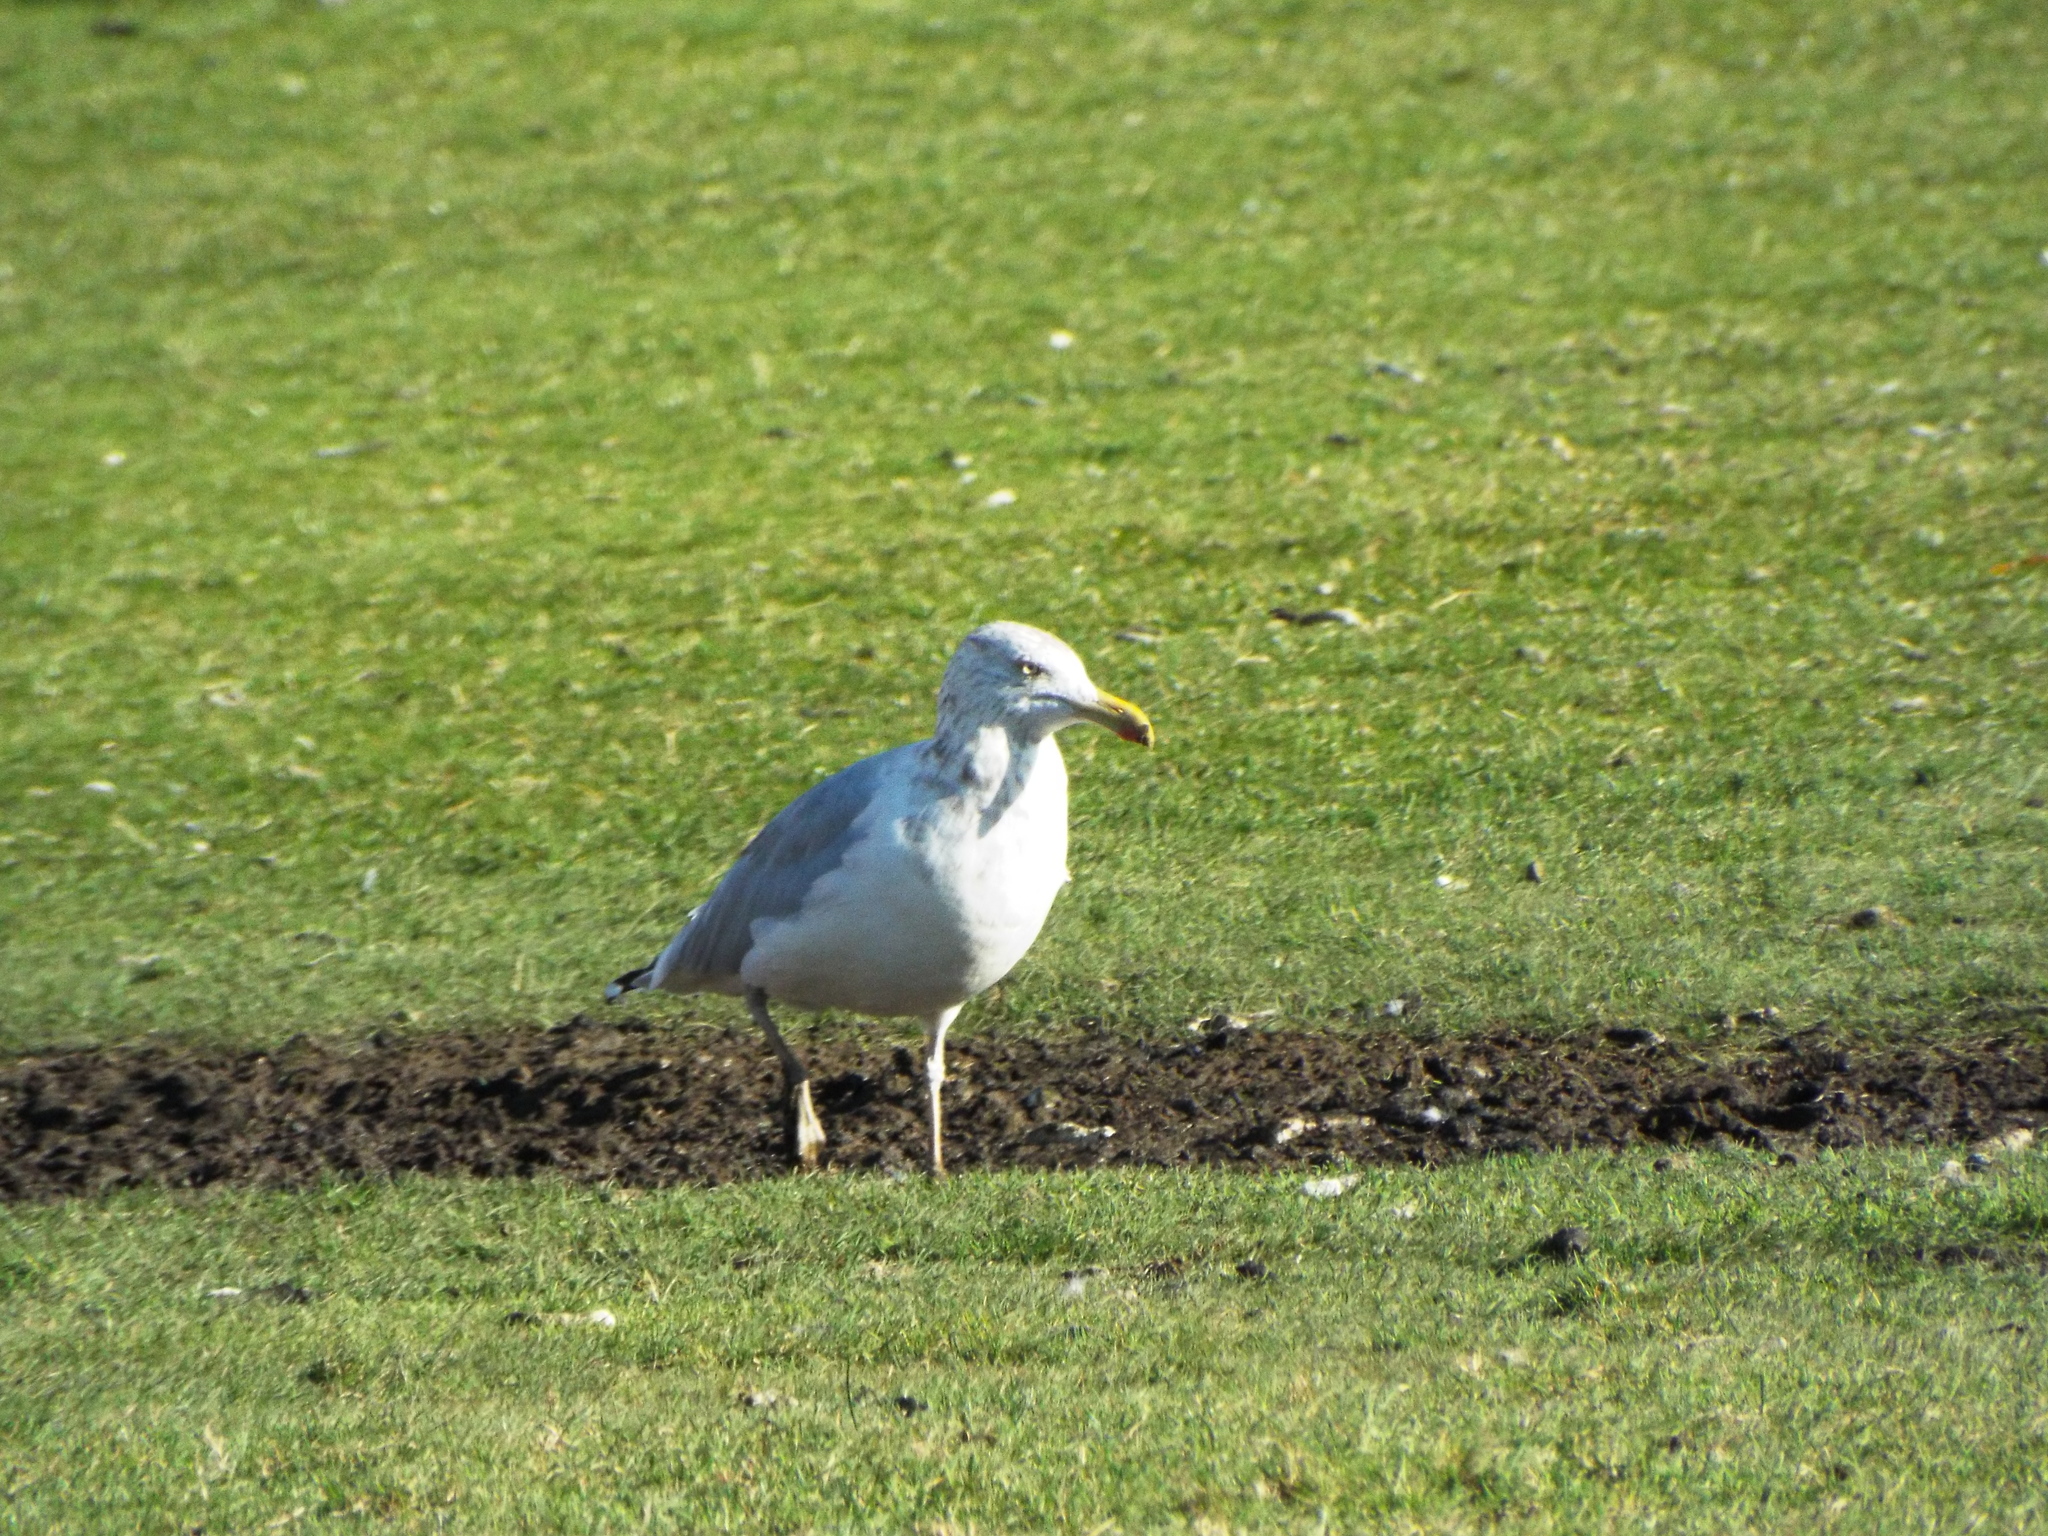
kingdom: Animalia
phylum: Chordata
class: Aves
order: Charadriiformes
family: Laridae
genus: Larus
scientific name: Larus argentatus
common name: Herring gull
